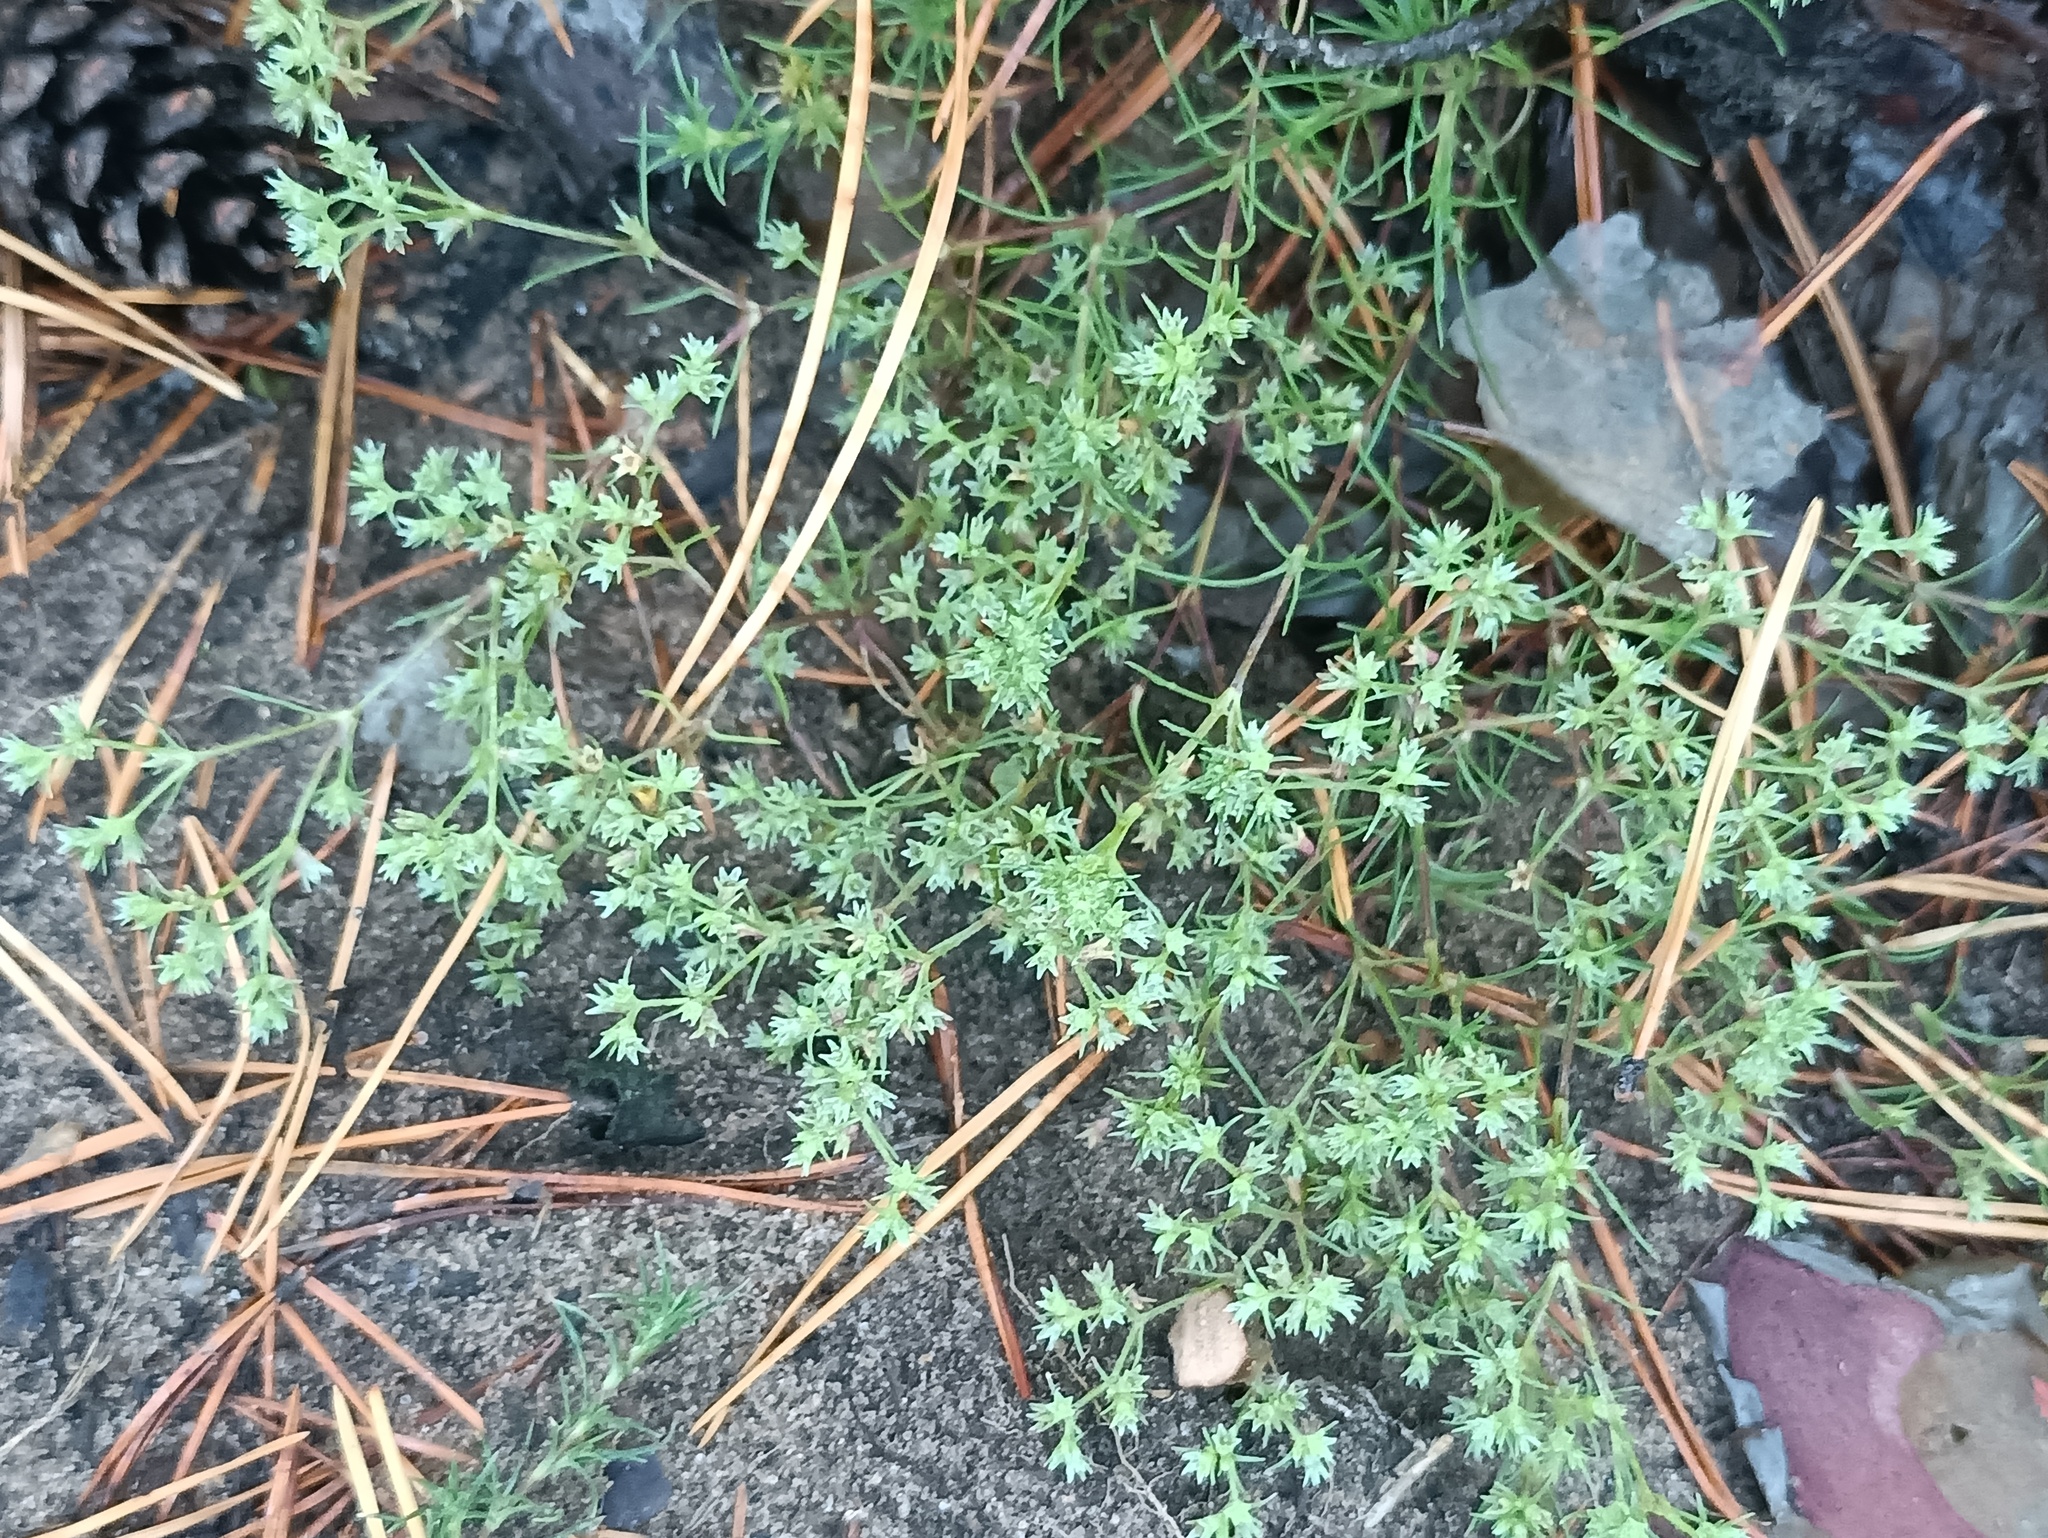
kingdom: Plantae
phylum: Tracheophyta
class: Magnoliopsida
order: Caryophyllales
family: Caryophyllaceae
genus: Scleranthus
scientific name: Scleranthus annuus
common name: Annual knawel
